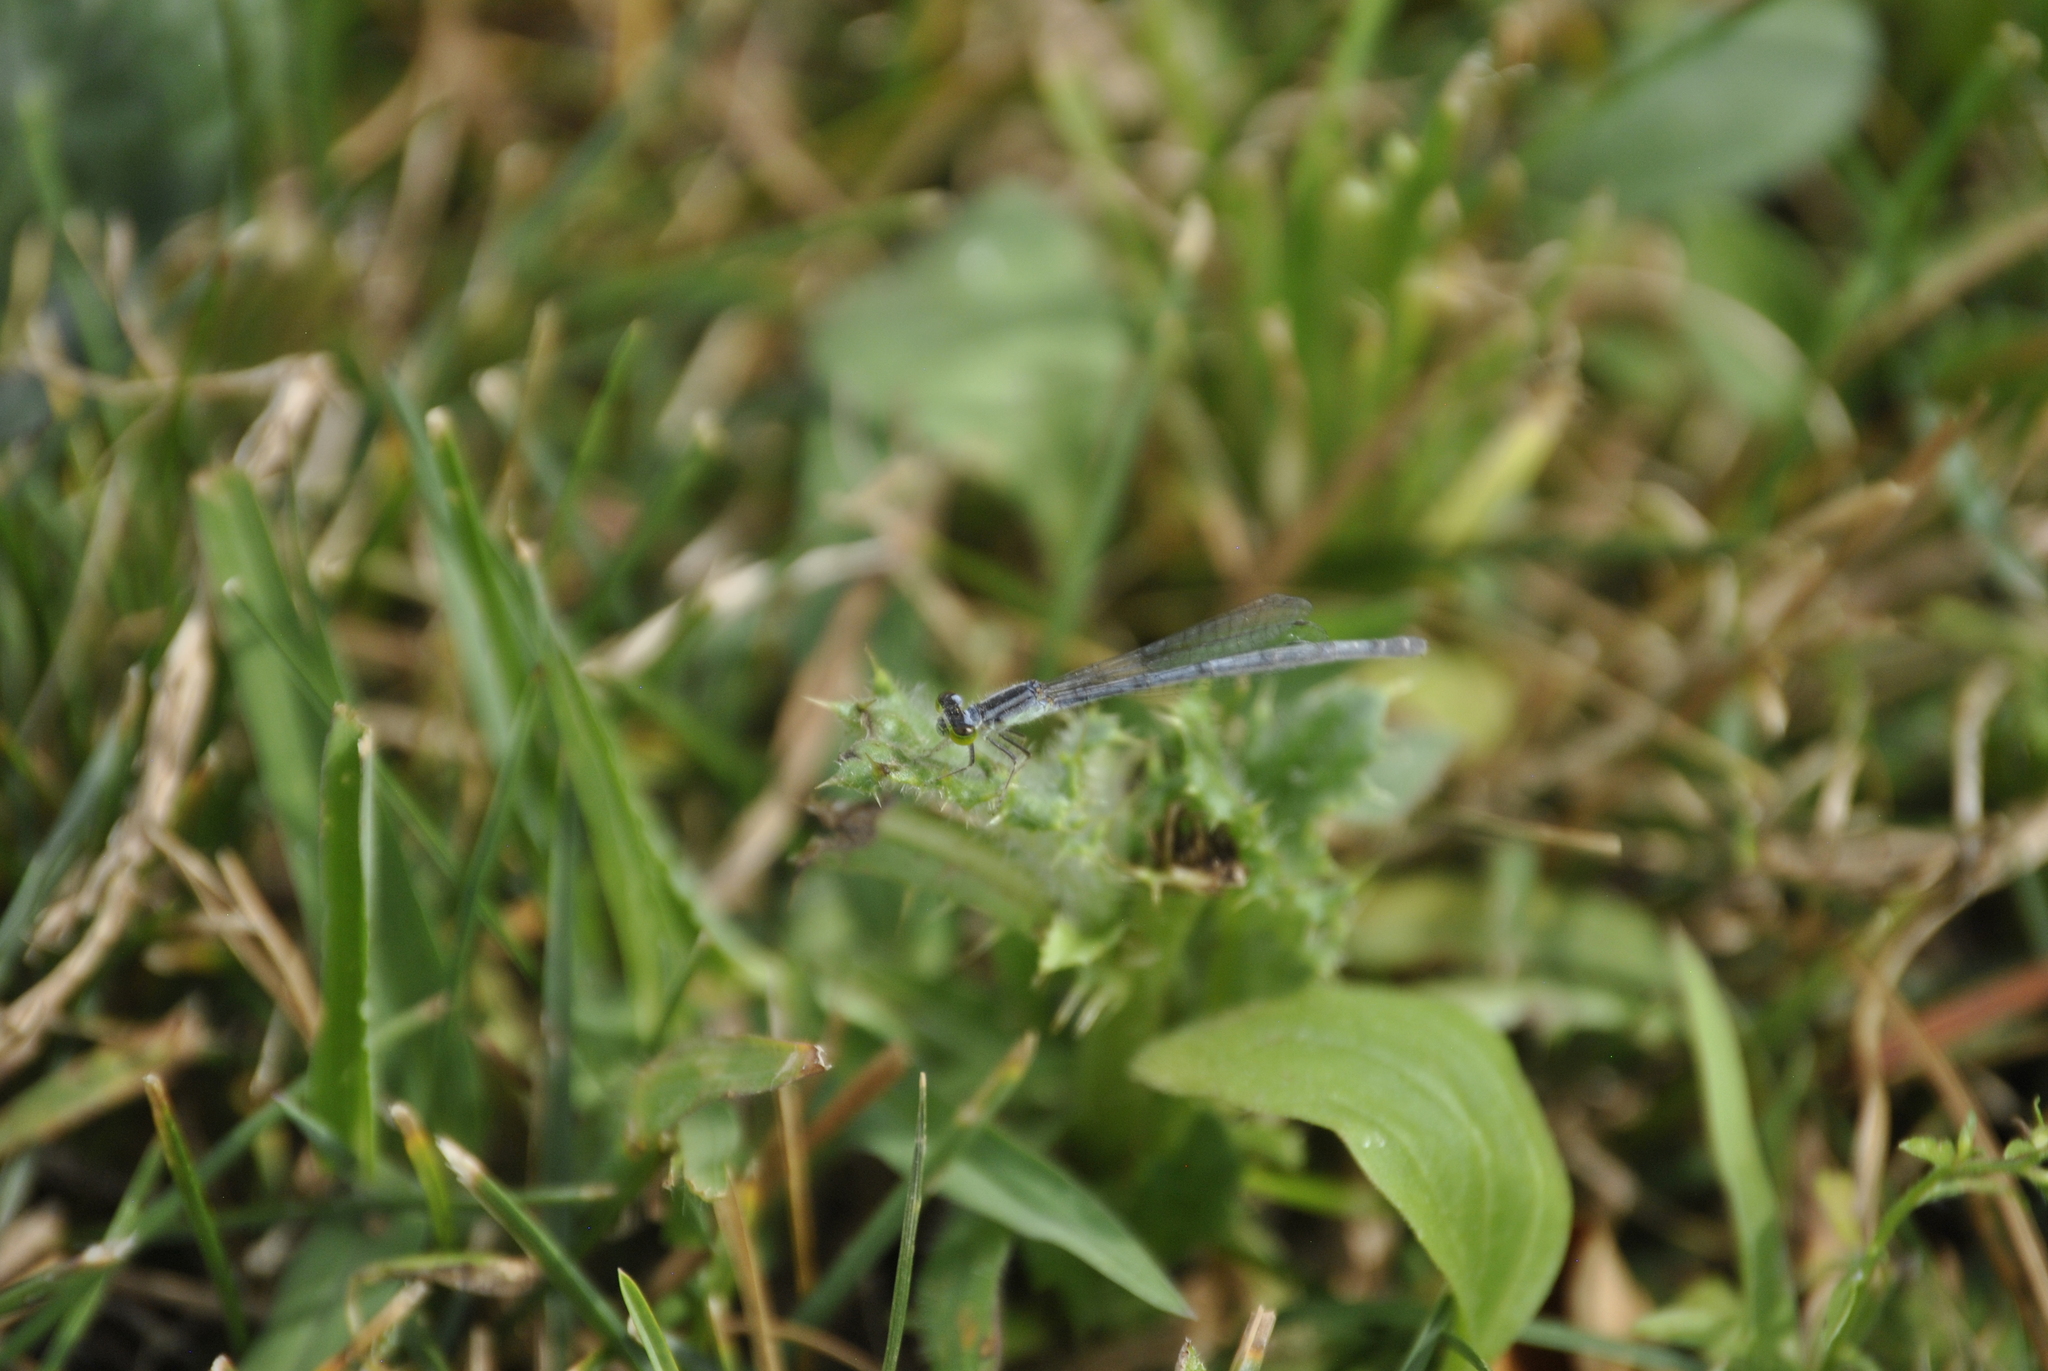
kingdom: Animalia
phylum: Arthropoda
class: Insecta
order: Odonata
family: Coenagrionidae
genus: Ischnura
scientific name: Ischnura verticalis
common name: Eastern forktail
